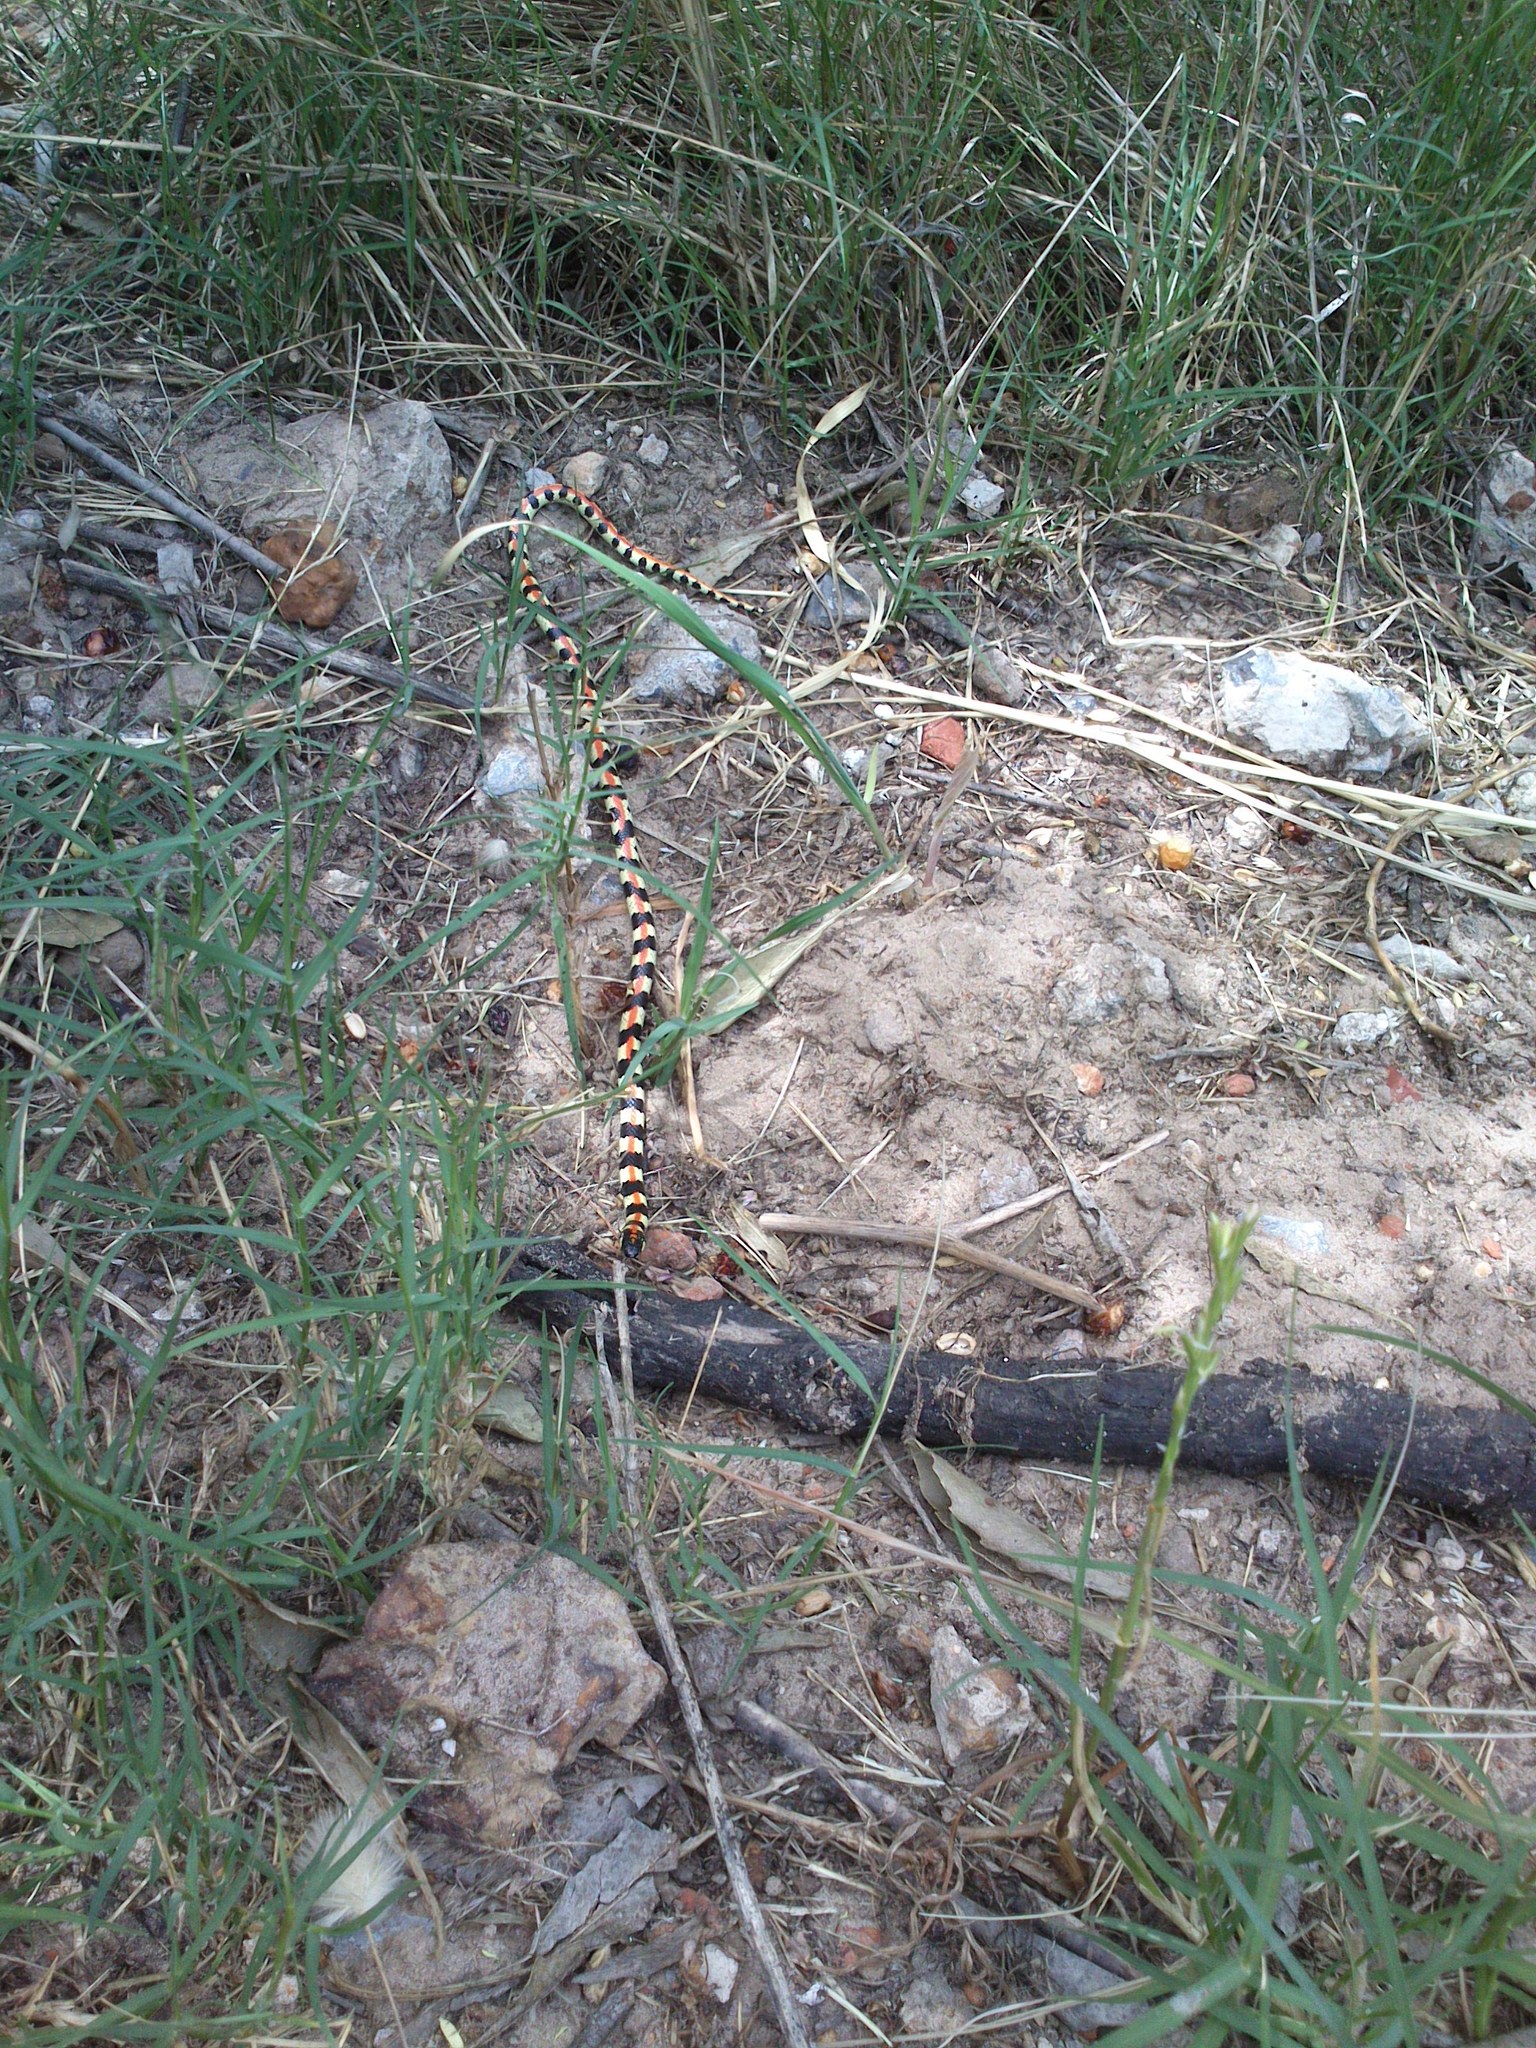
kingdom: Animalia
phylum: Chordata
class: Squamata
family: Atractaspididae
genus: Homoroselaps
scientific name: Homoroselaps lacteus
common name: Spotted harlequin snake
